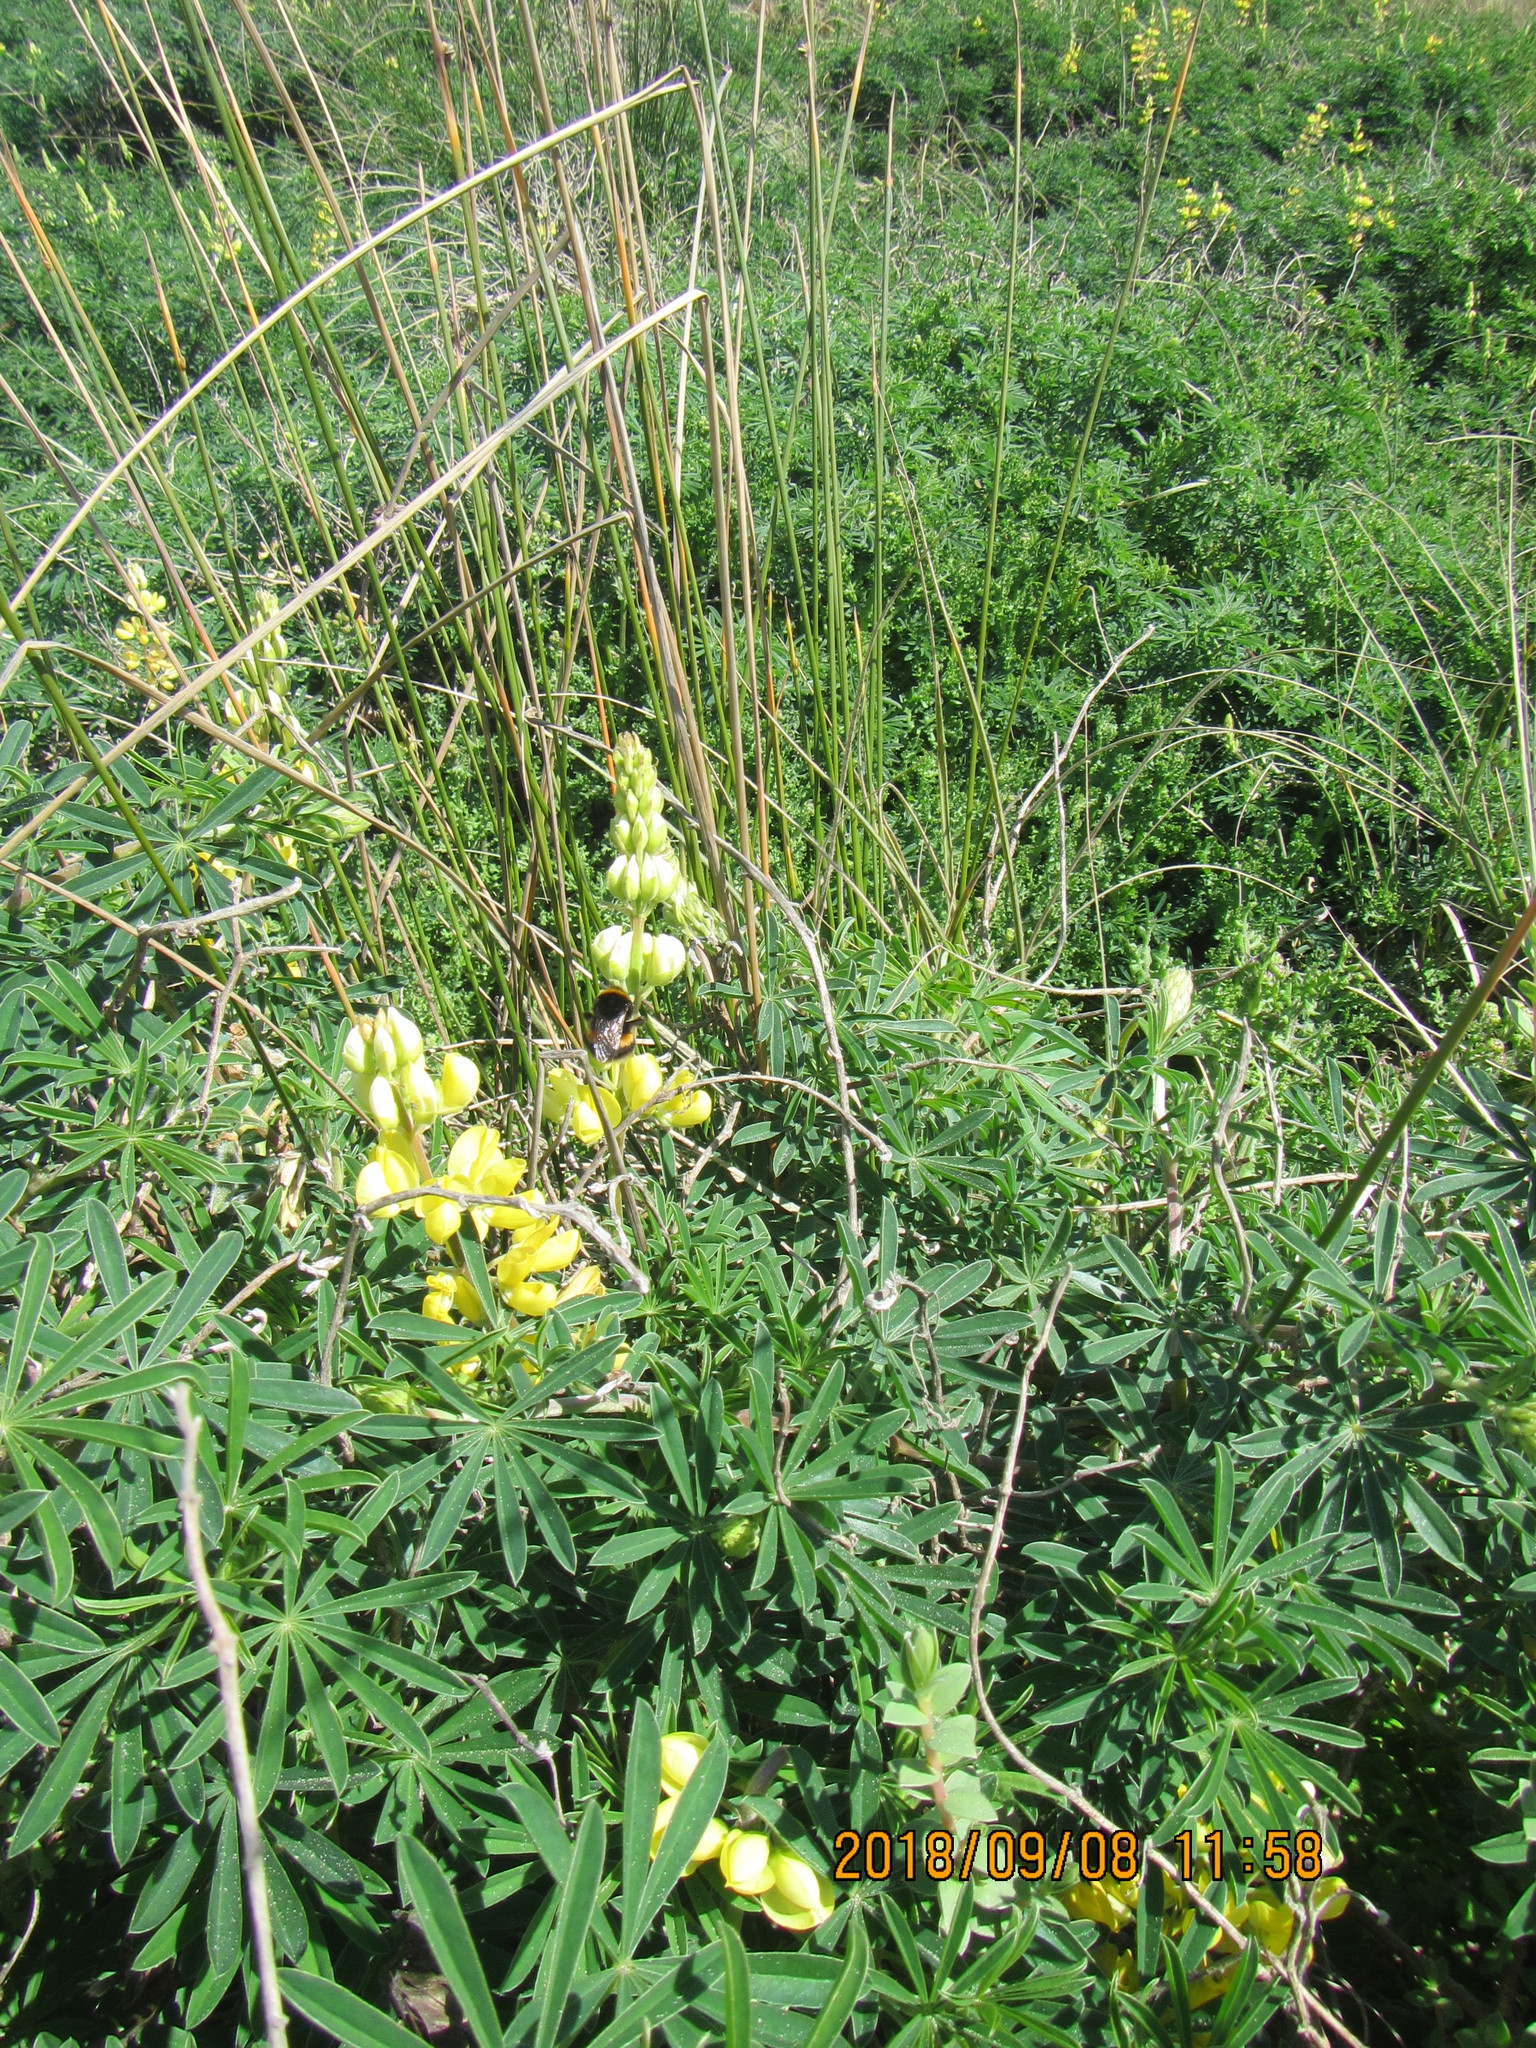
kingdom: Animalia
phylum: Arthropoda
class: Insecta
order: Hymenoptera
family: Apidae
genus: Bombus
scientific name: Bombus terrestris
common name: Buff-tailed bumblebee
